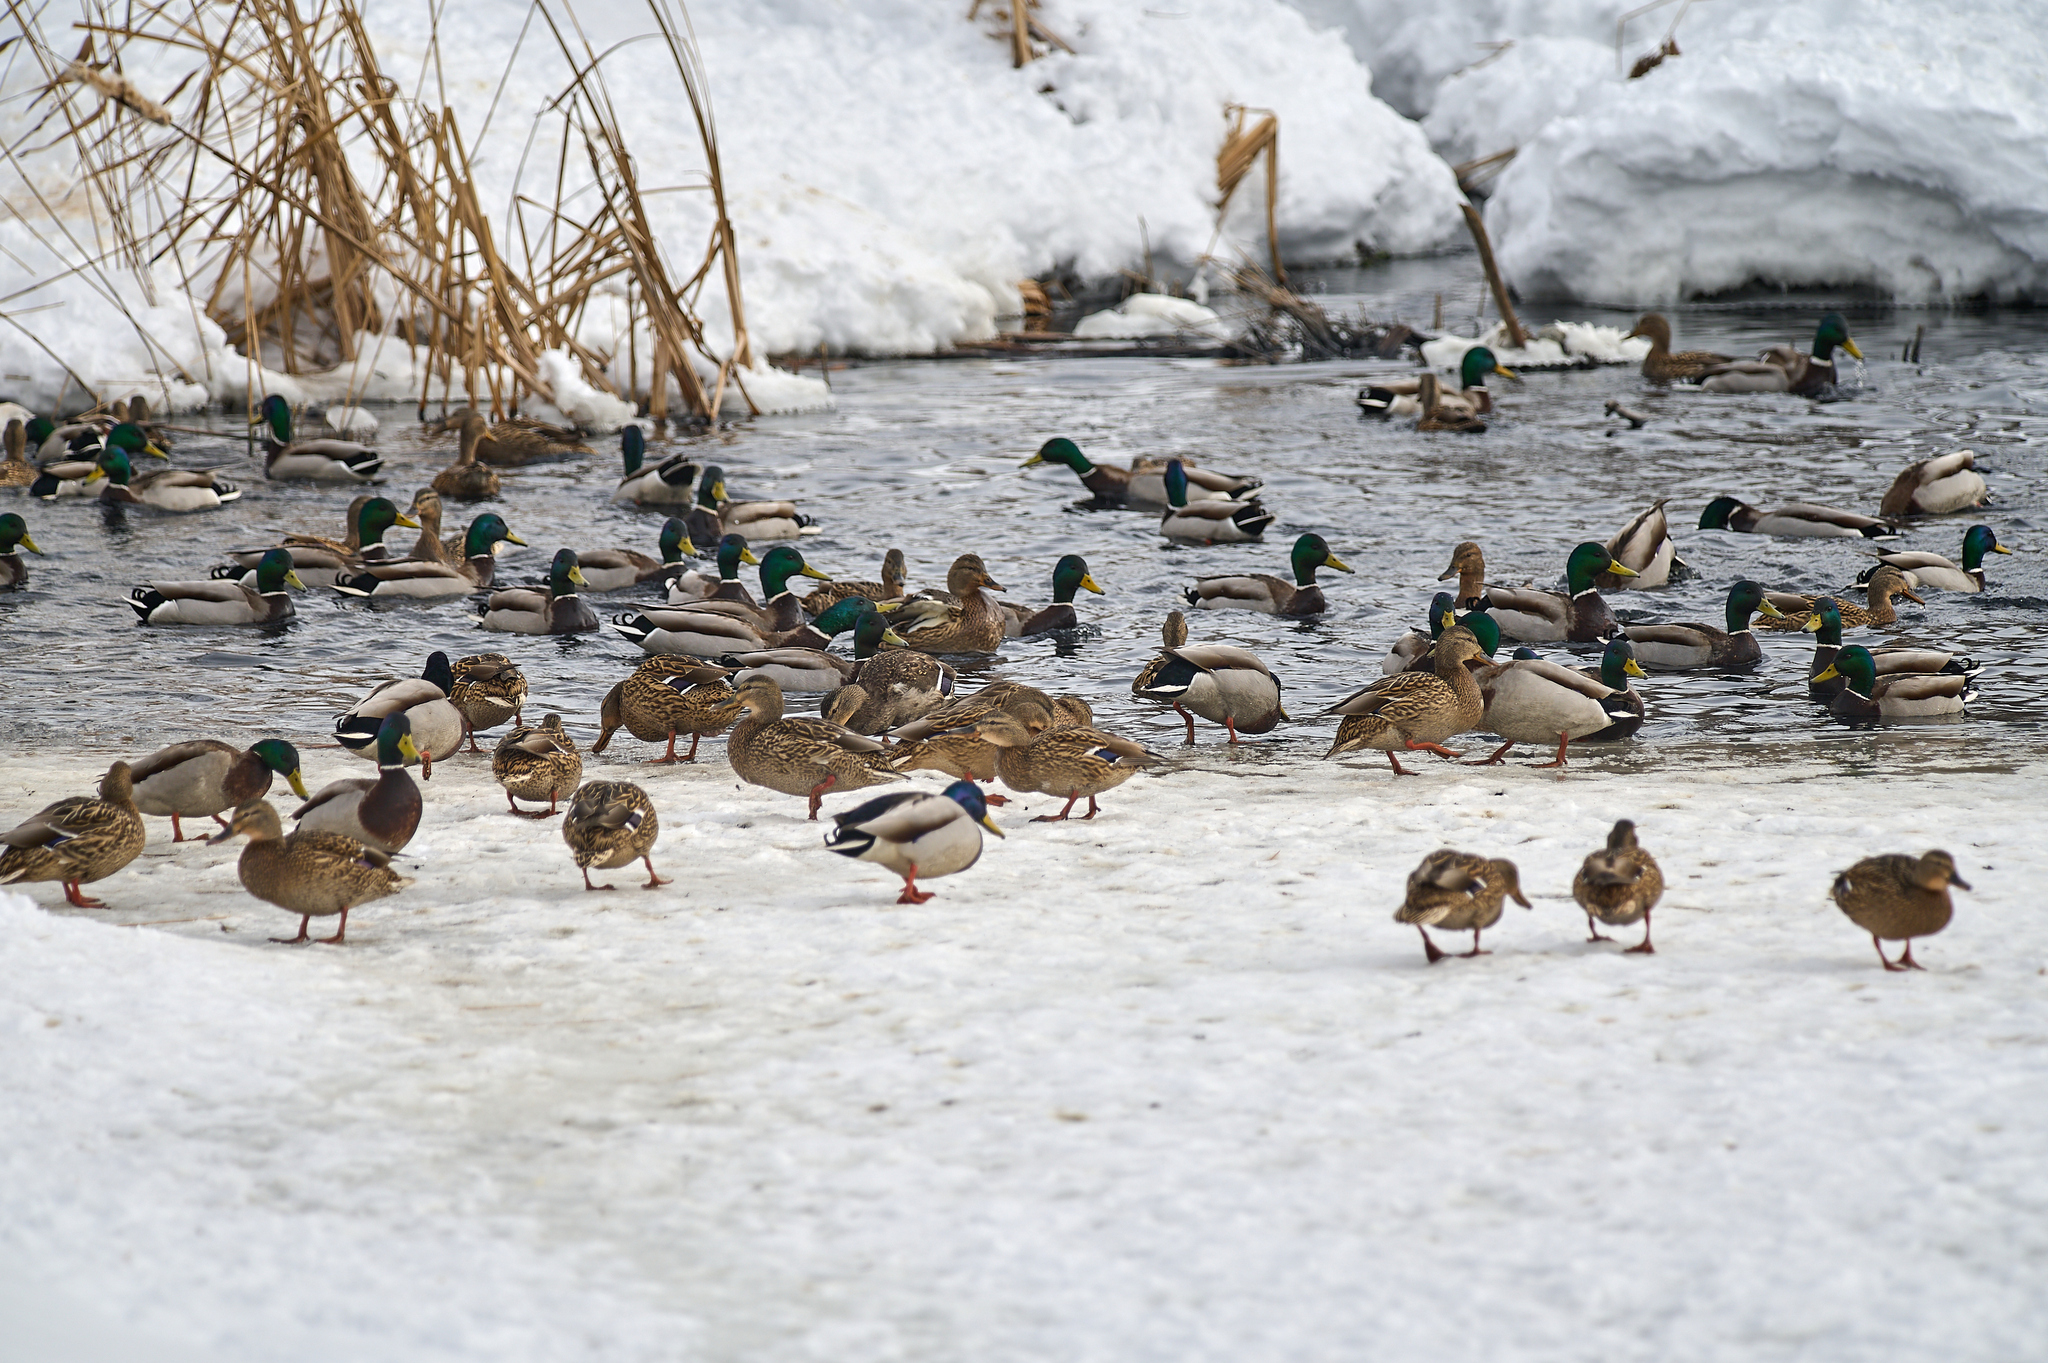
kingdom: Animalia
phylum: Chordata
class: Aves
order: Anseriformes
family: Anatidae
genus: Anas
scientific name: Anas platyrhynchos
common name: Mallard
